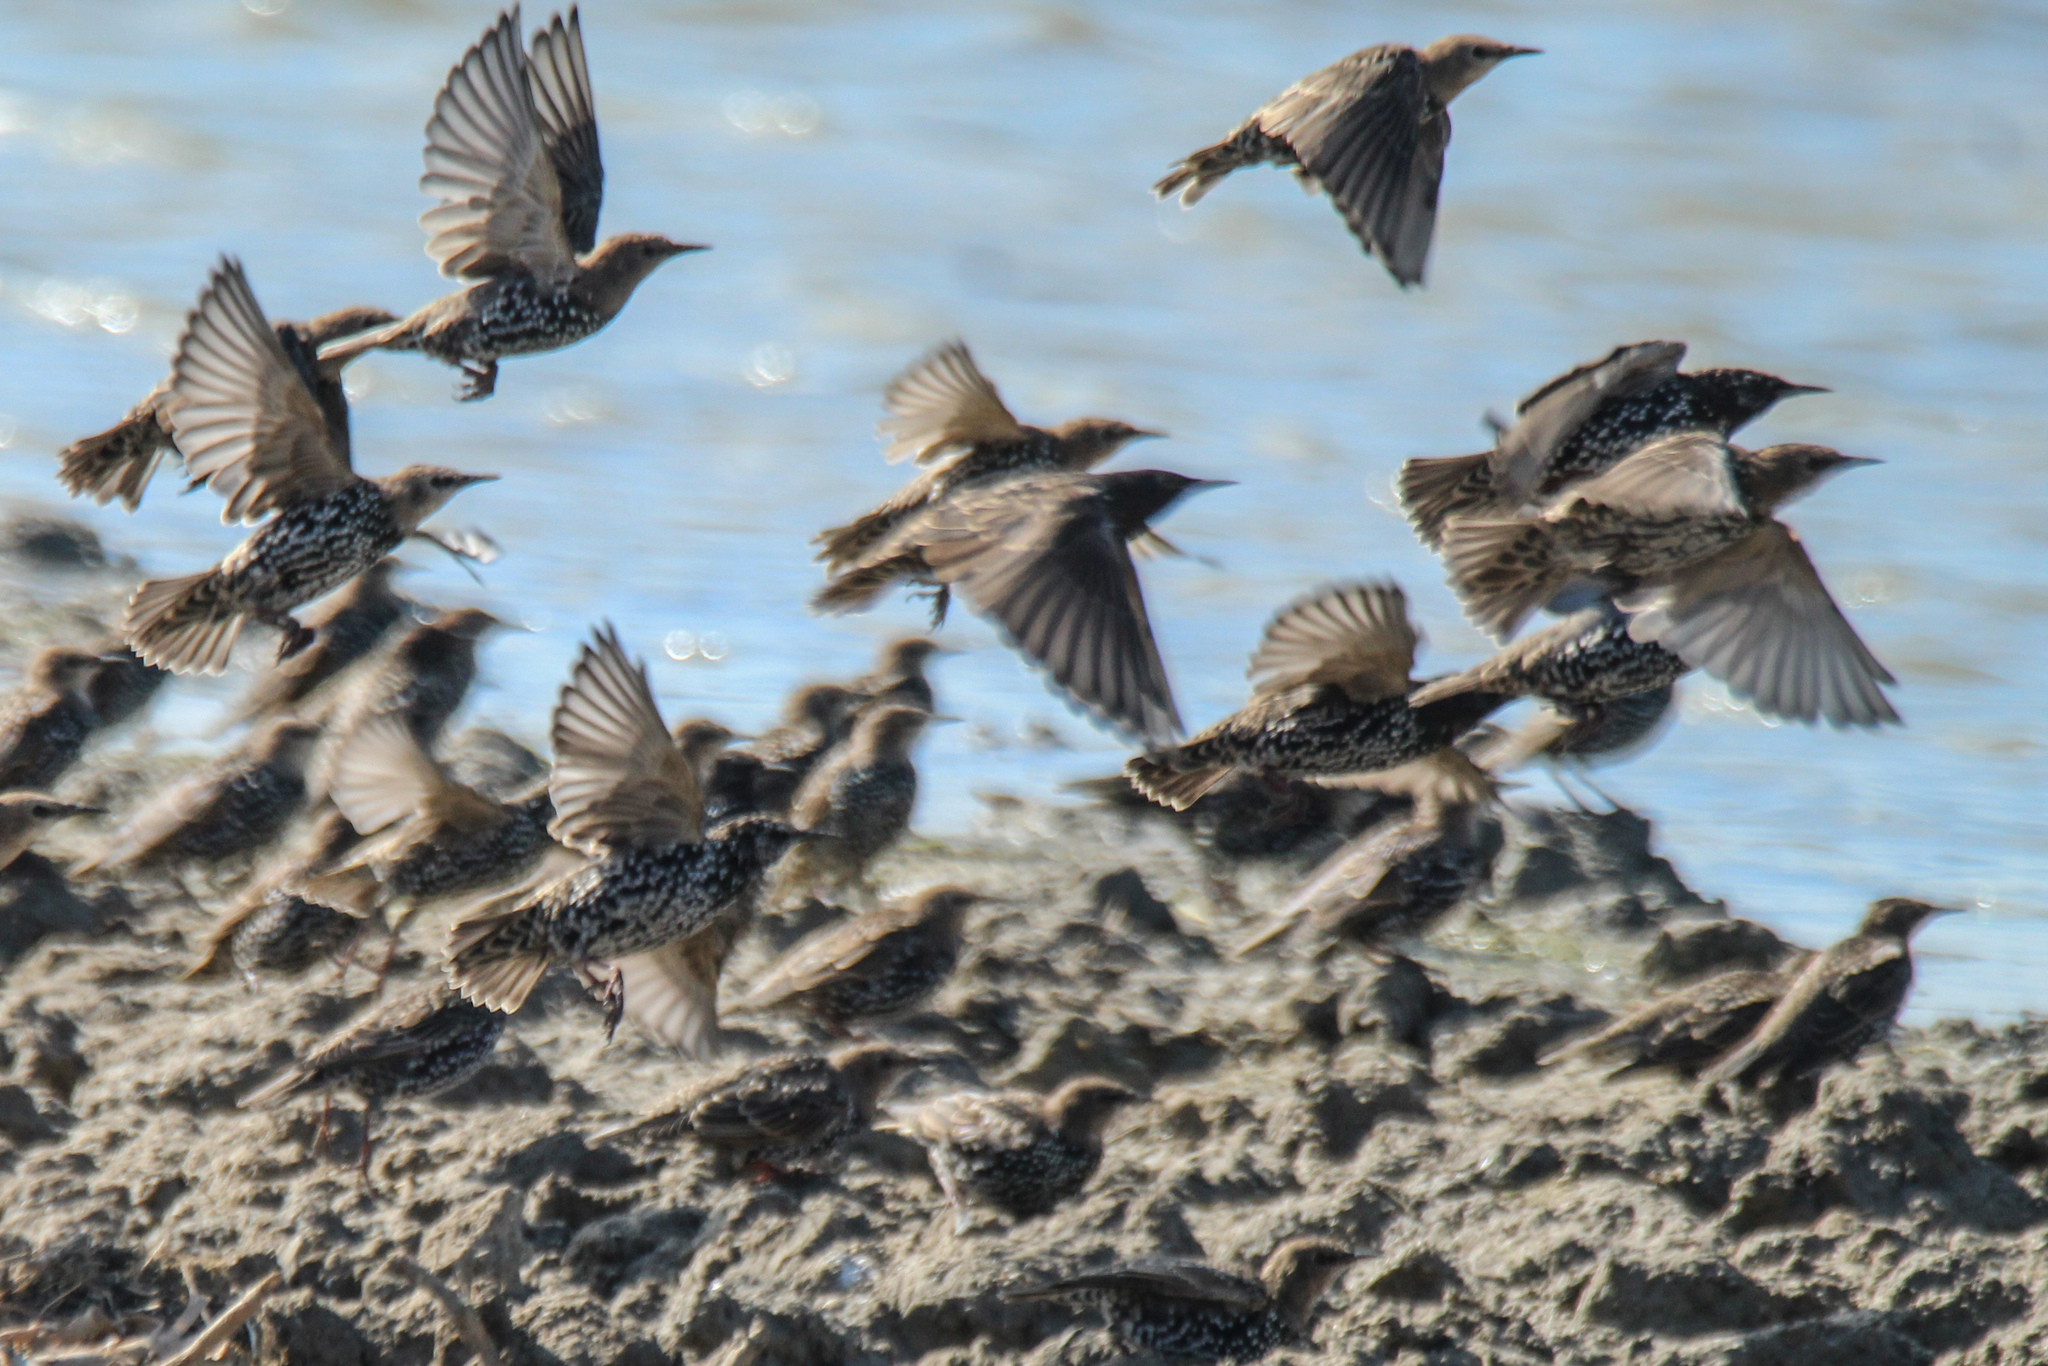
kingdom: Animalia
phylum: Chordata
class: Aves
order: Passeriformes
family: Sturnidae
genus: Sturnus
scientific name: Sturnus vulgaris
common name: Common starling
